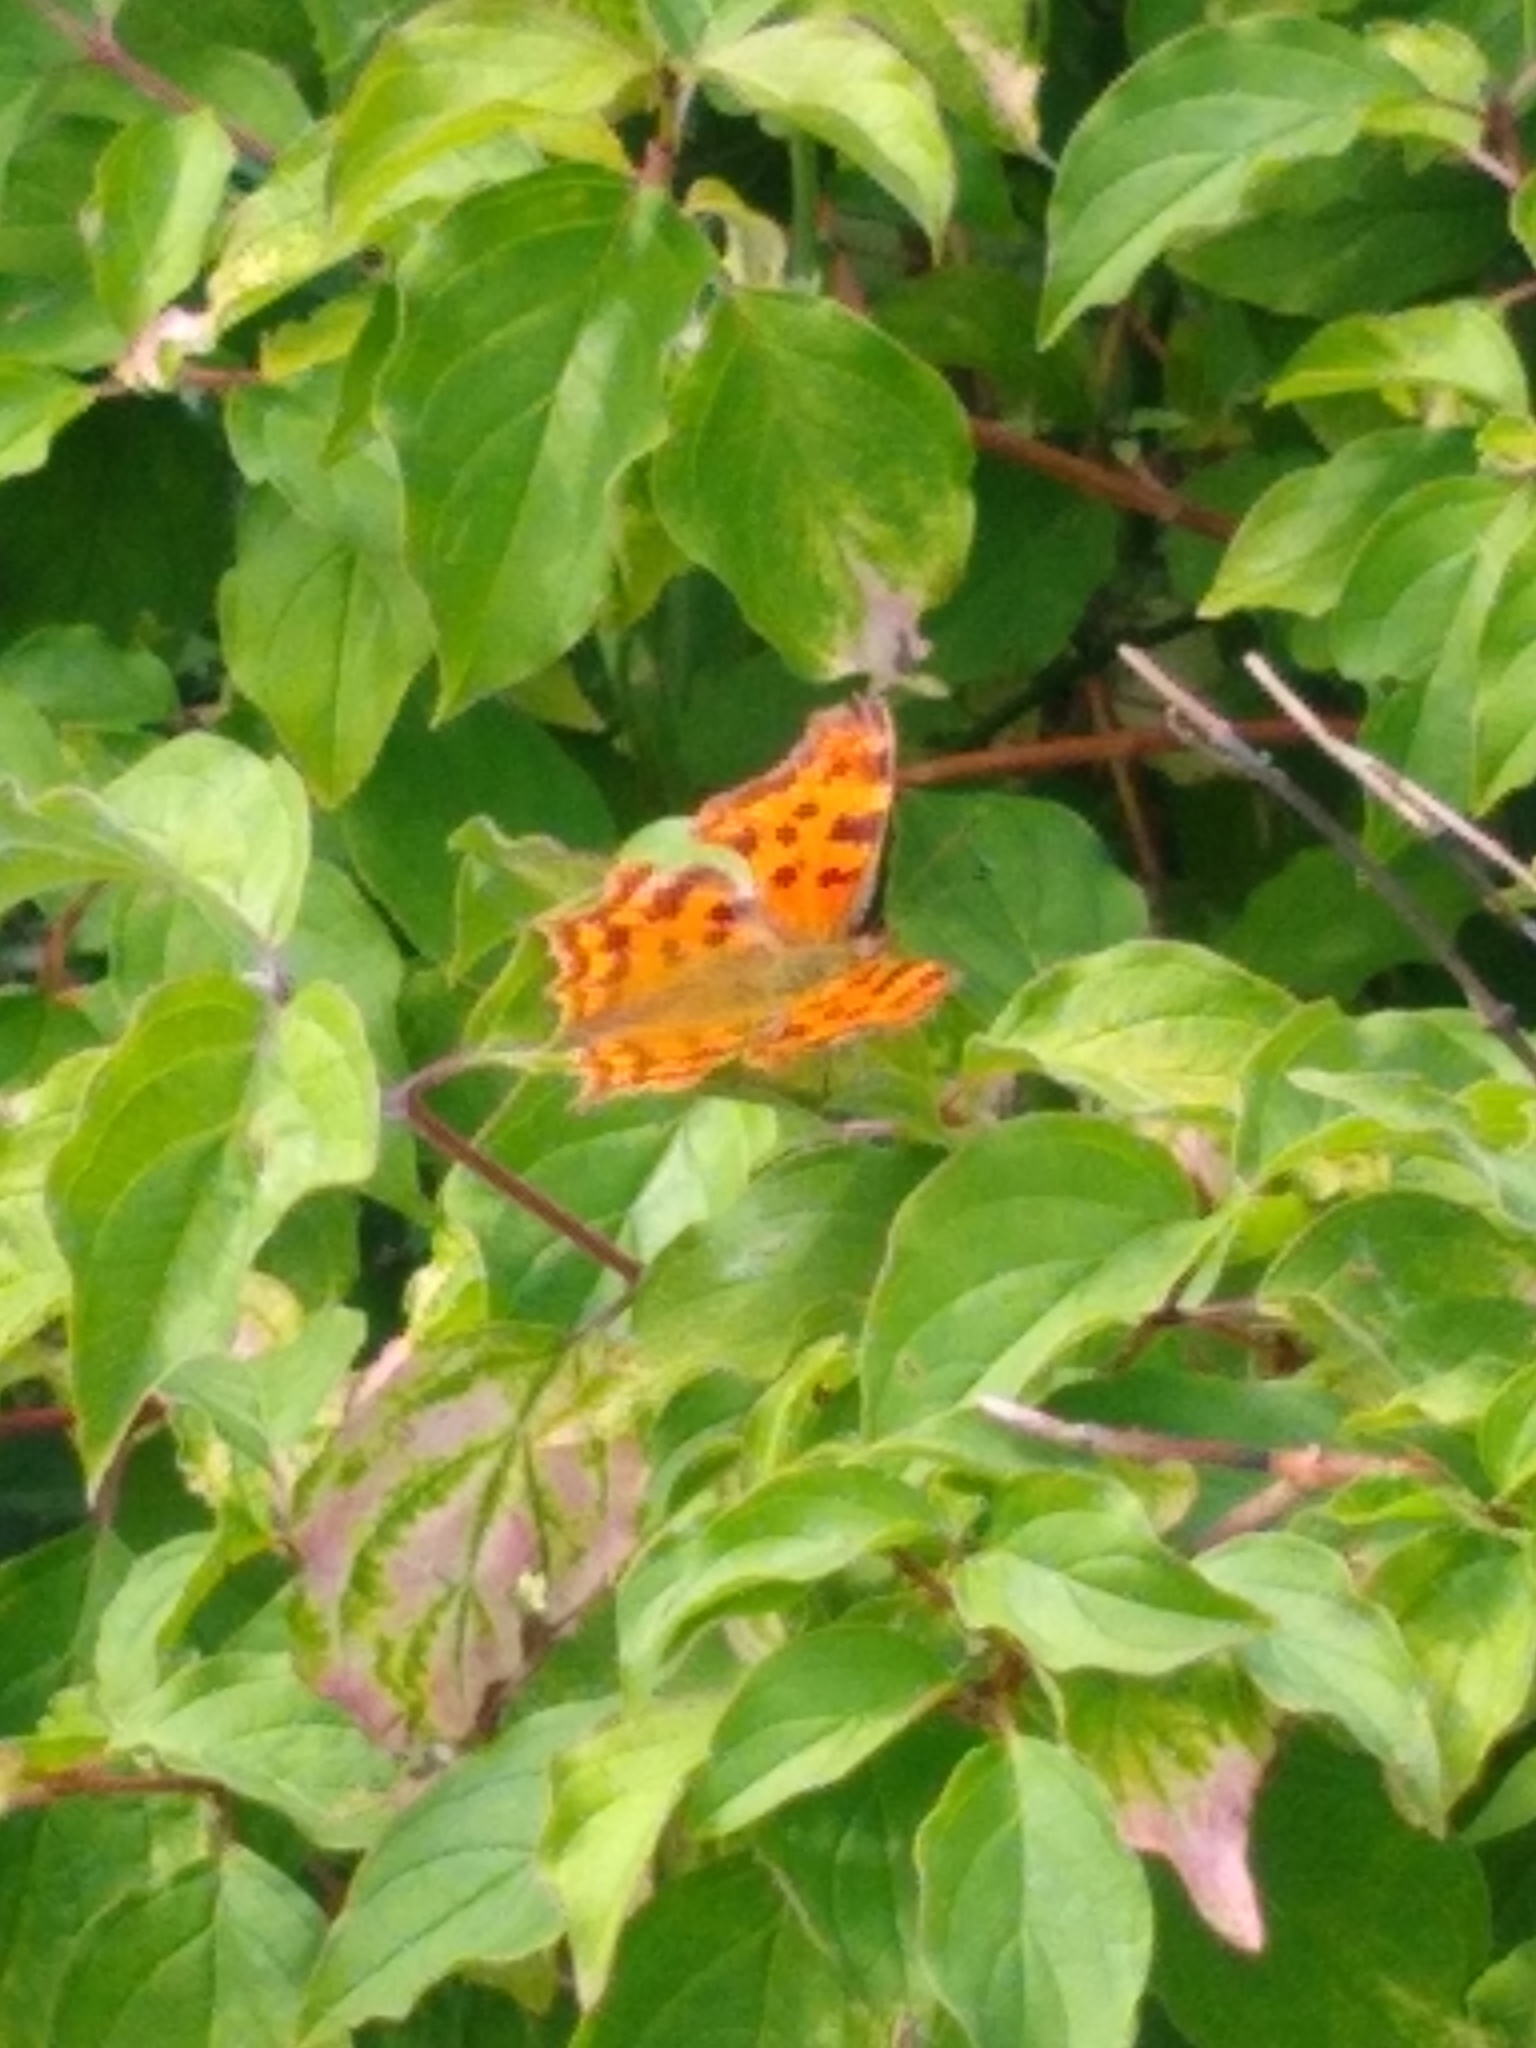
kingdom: Animalia
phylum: Arthropoda
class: Insecta
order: Lepidoptera
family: Nymphalidae
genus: Polygonia
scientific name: Polygonia c-album
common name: Comma
